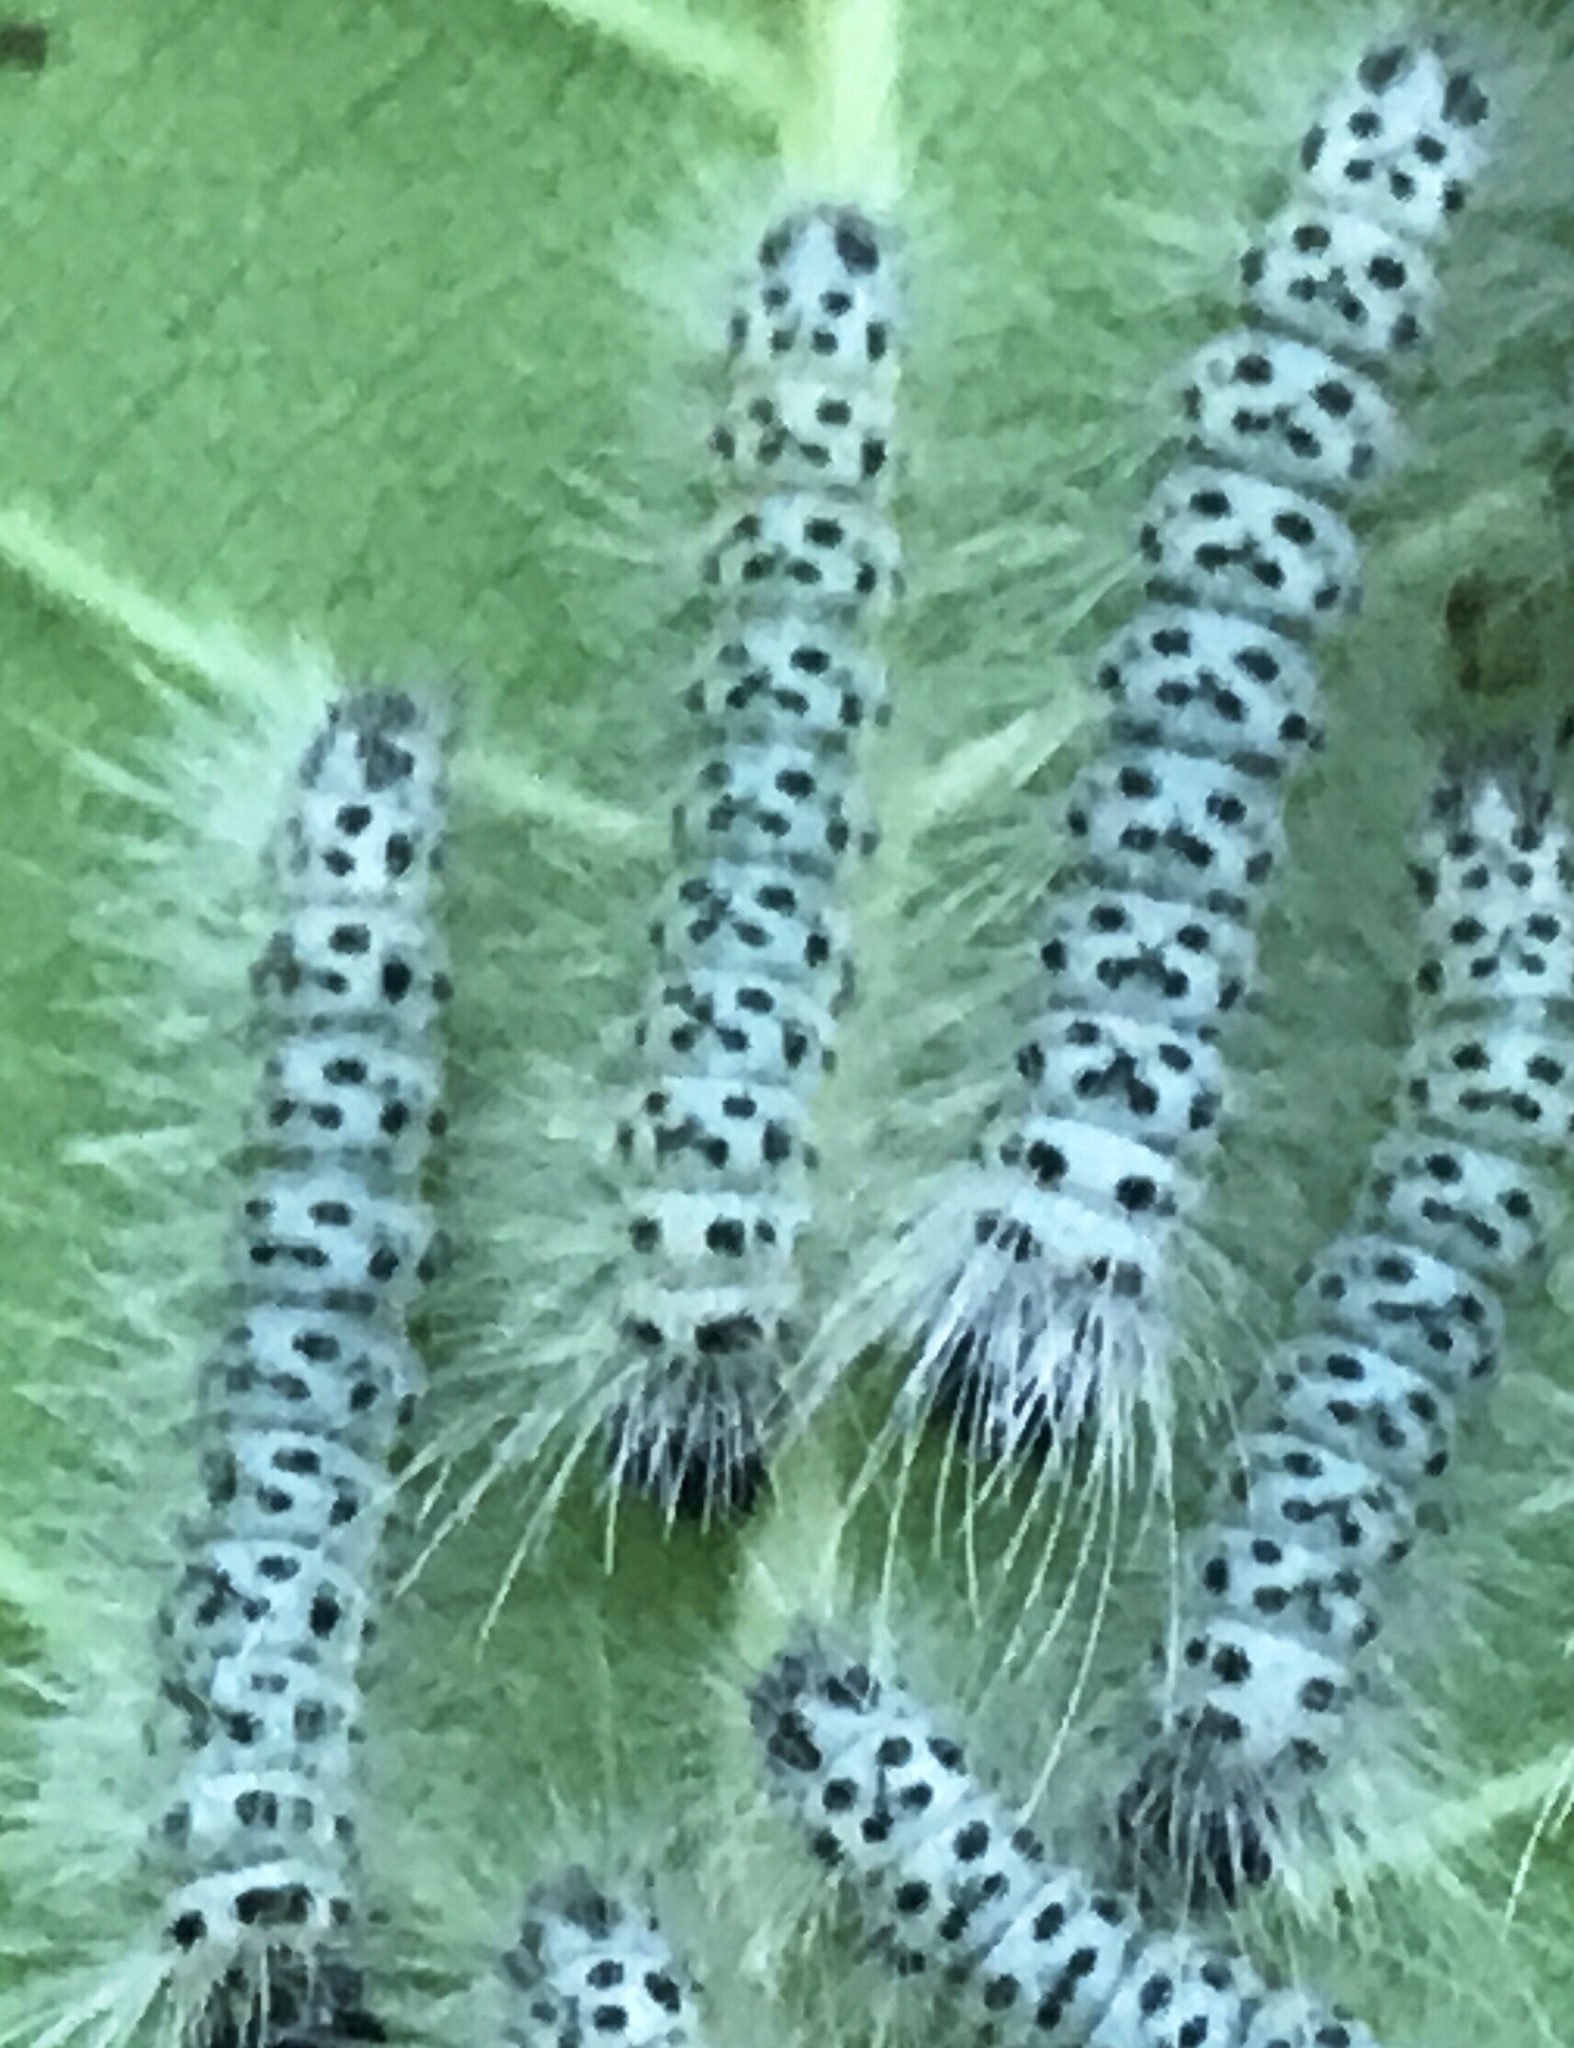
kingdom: Animalia
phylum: Arthropoda
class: Insecta
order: Lepidoptera
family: Erebidae
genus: Lophocampa
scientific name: Lophocampa caryae
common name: Hickory tussock moth
